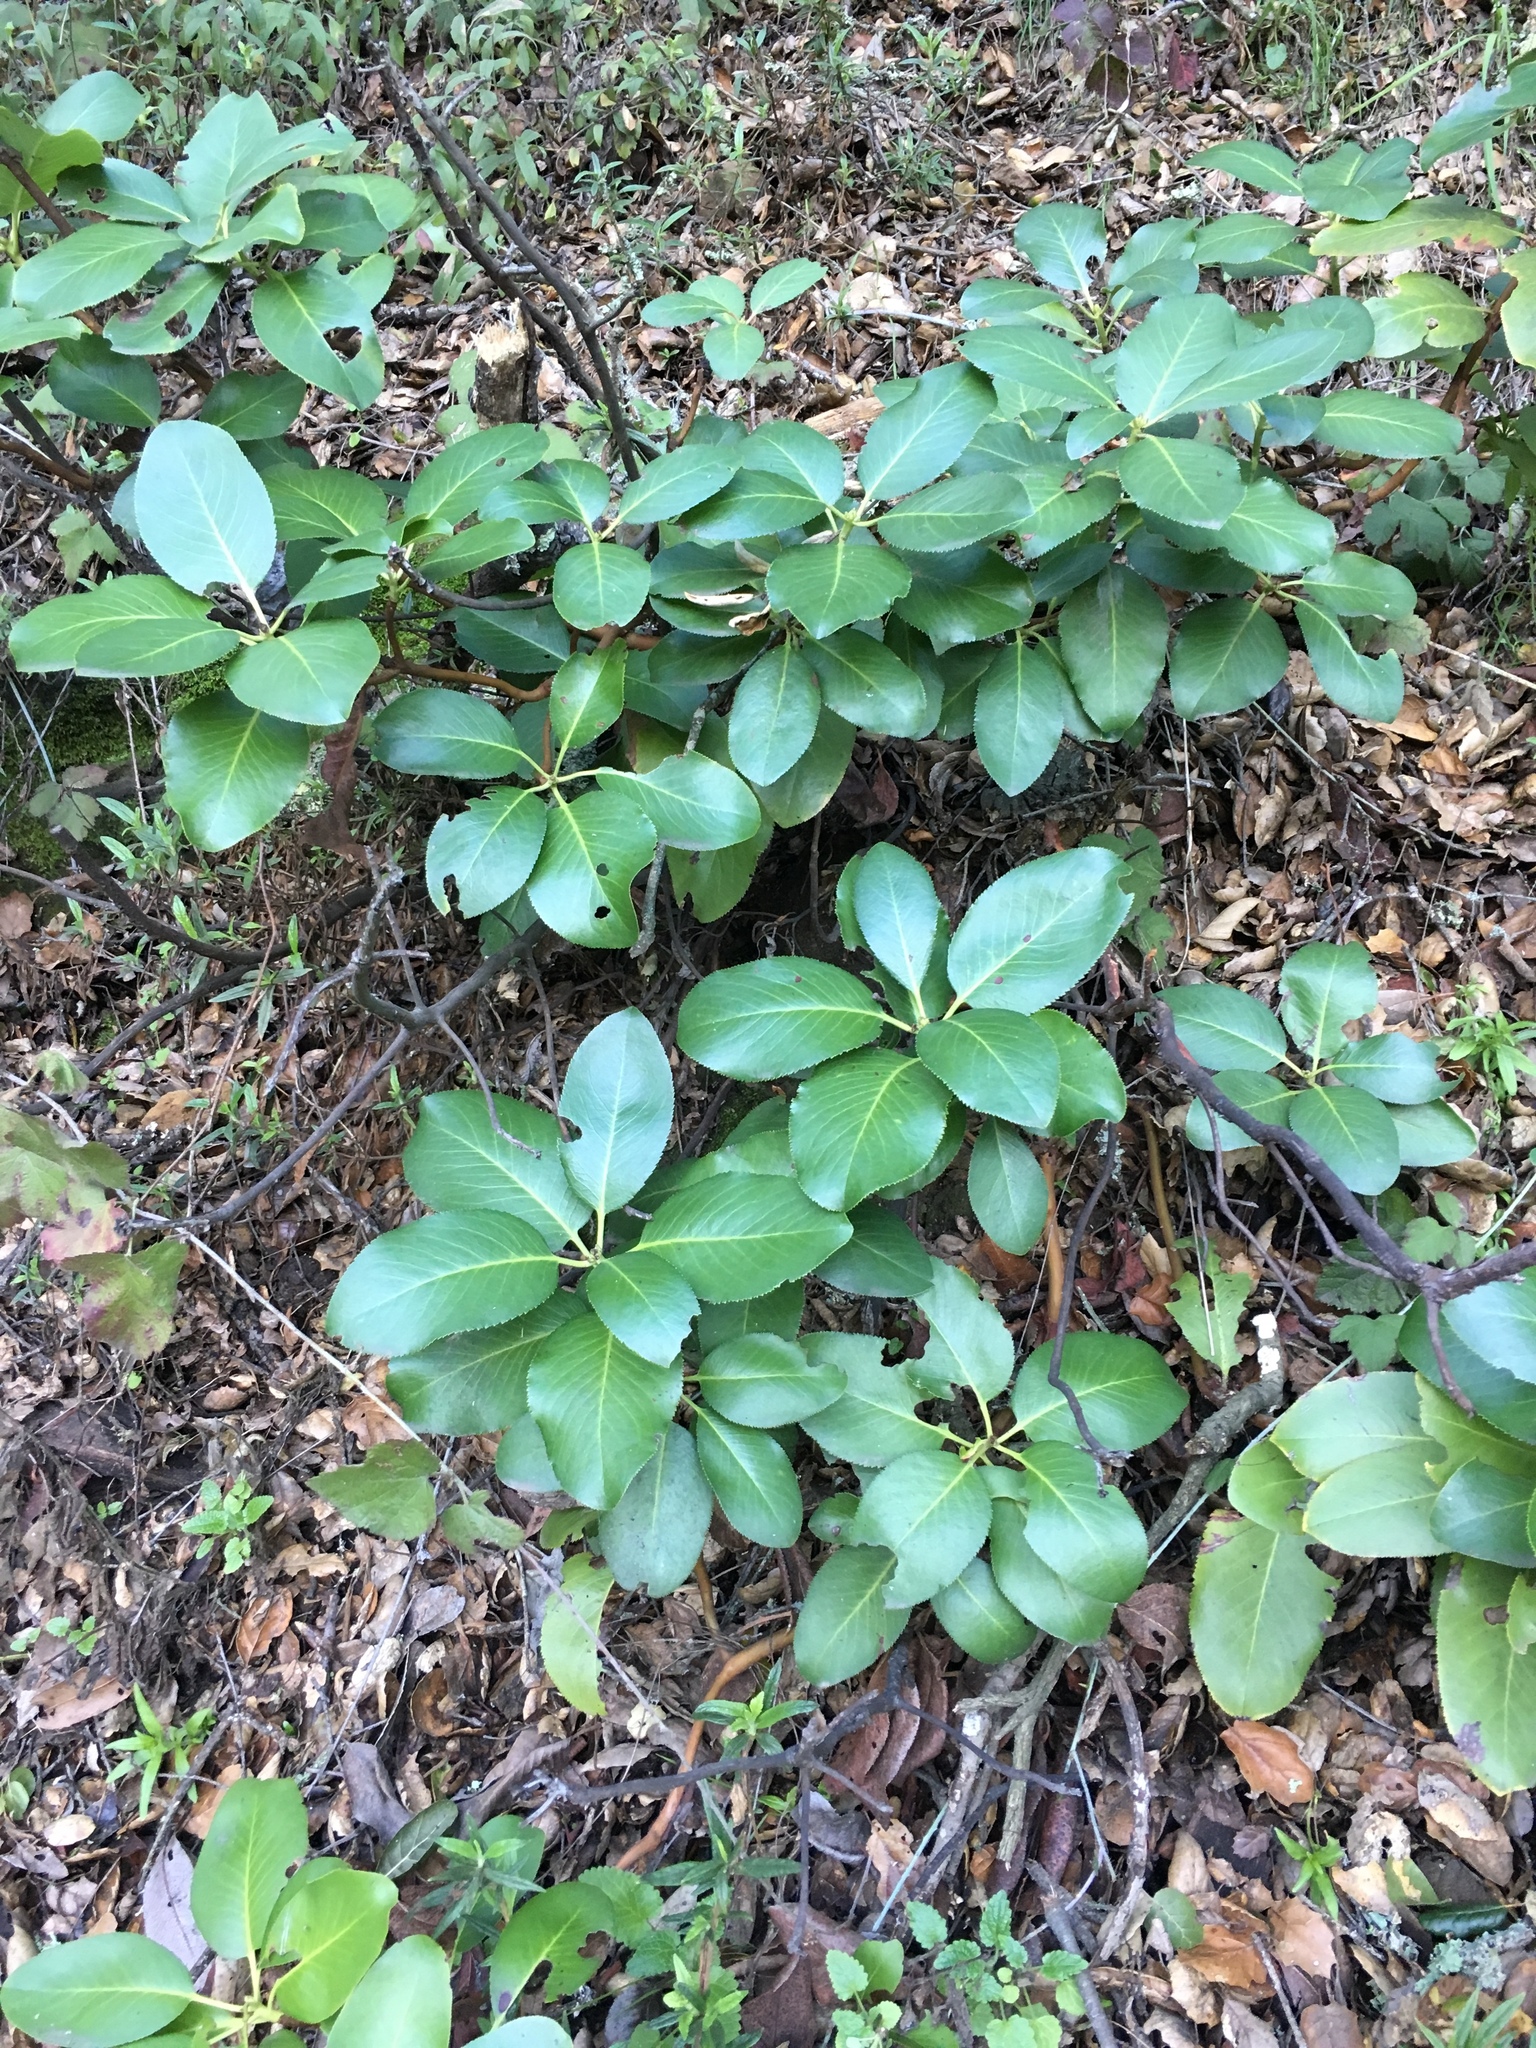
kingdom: Plantae
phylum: Tracheophyta
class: Magnoliopsida
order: Ericales
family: Ericaceae
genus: Arbutus
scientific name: Arbutus menziesii
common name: Pacific madrone
